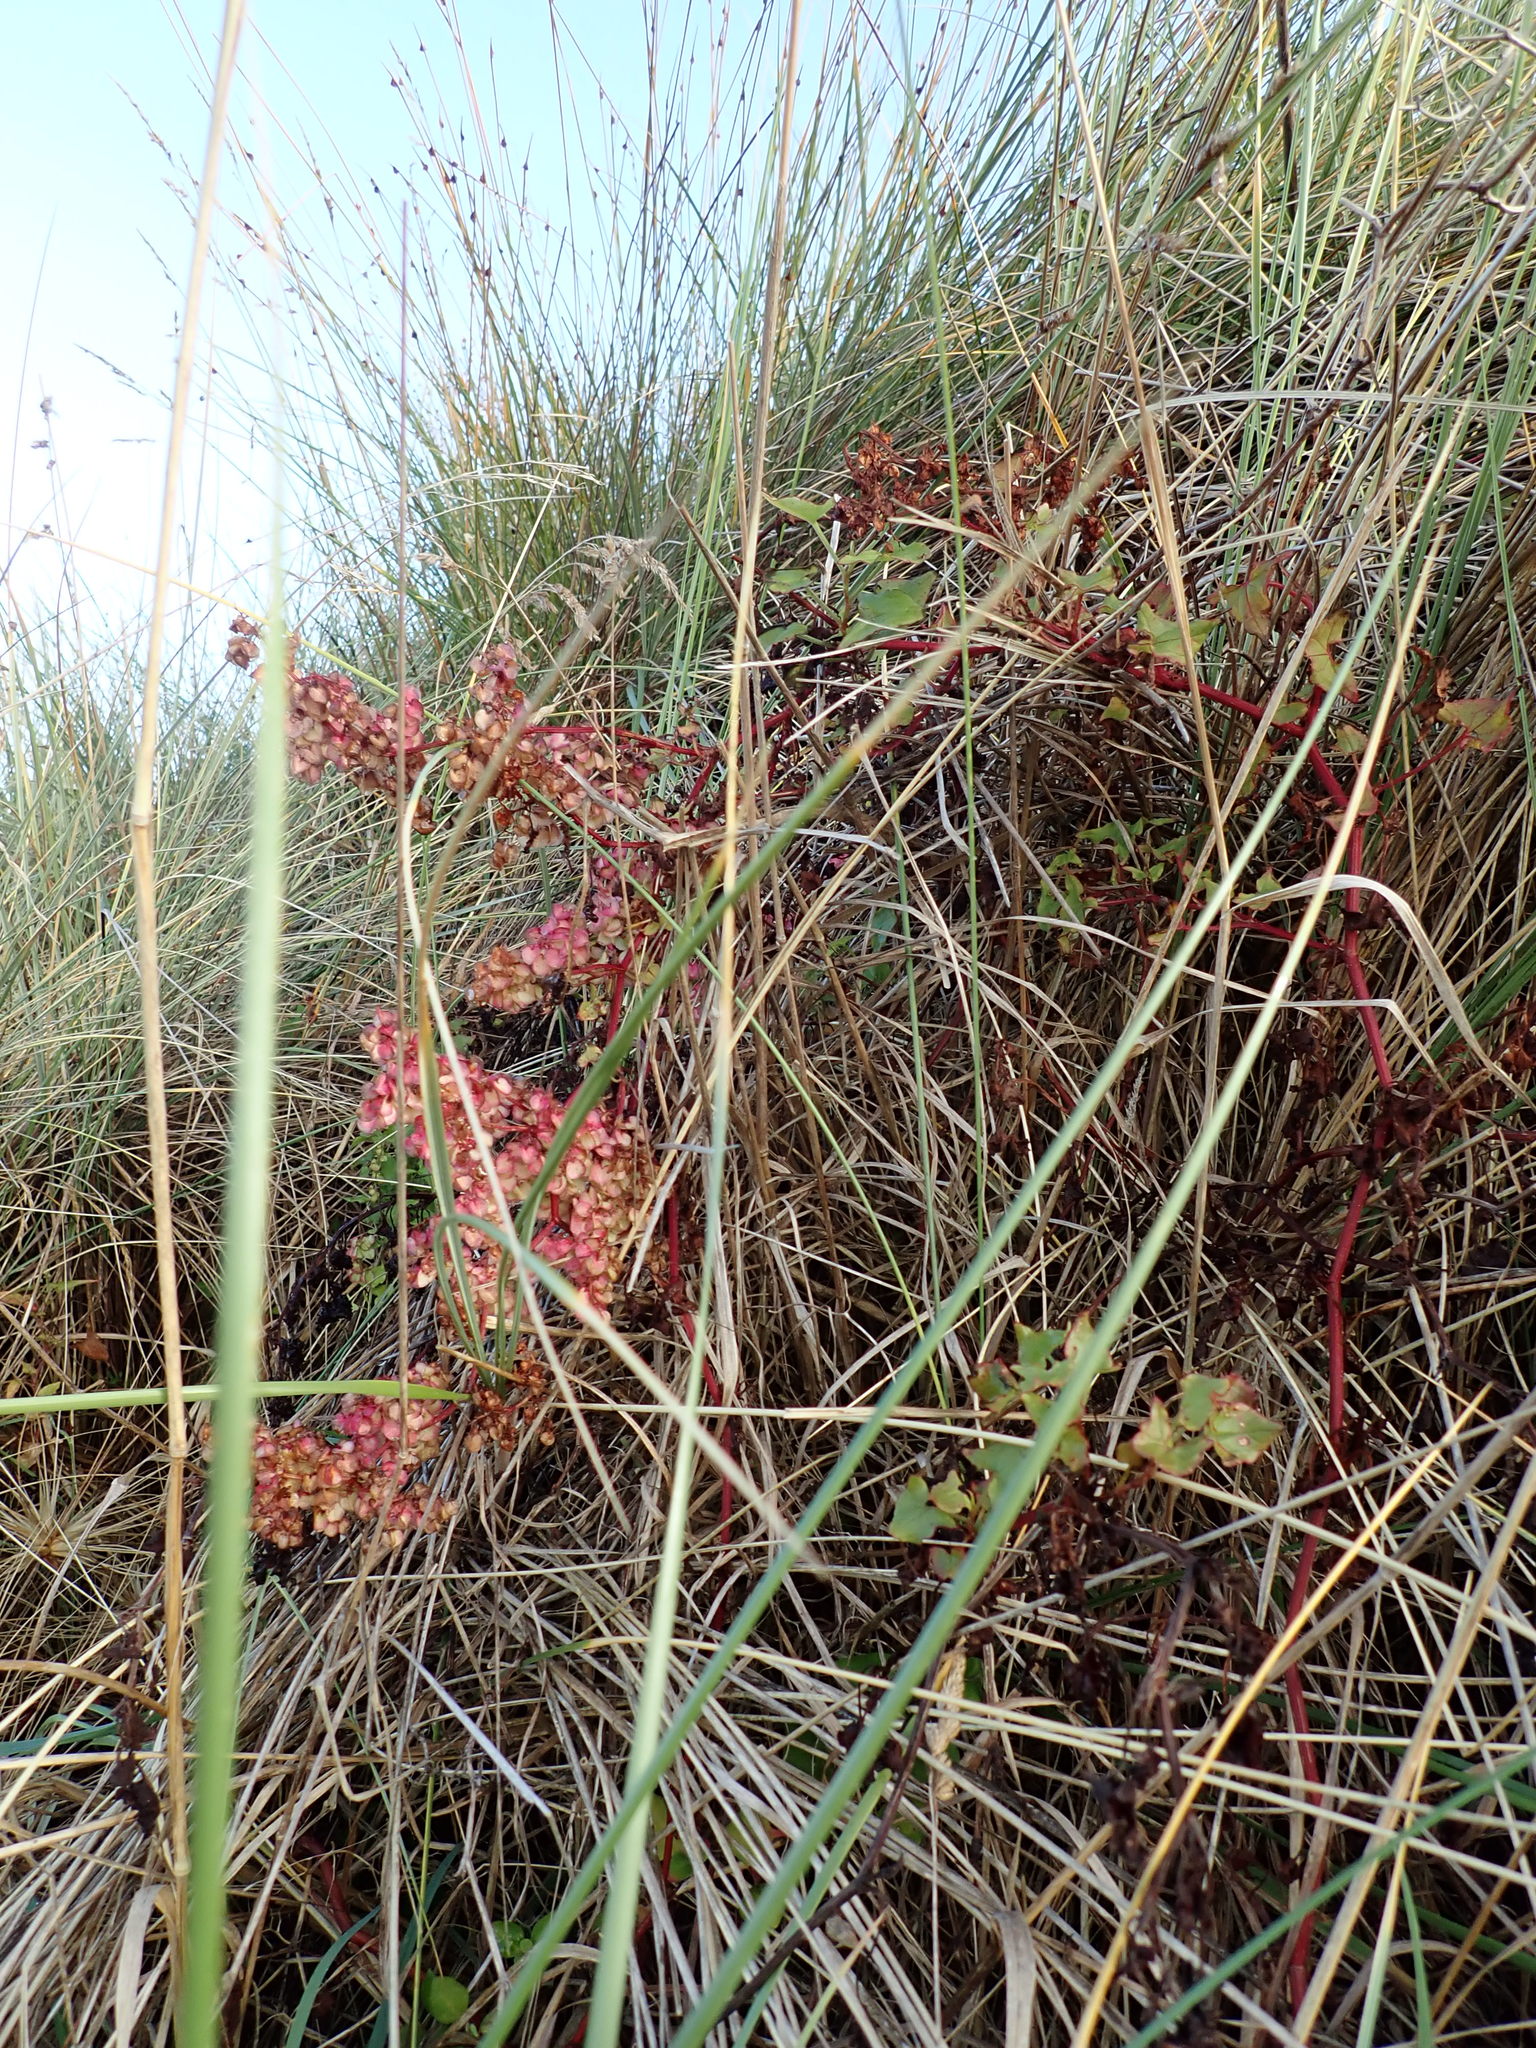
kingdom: Plantae
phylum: Tracheophyta
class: Magnoliopsida
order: Caryophyllales
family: Polygonaceae
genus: Rumex
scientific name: Rumex sagittatus
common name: Climbing dock
